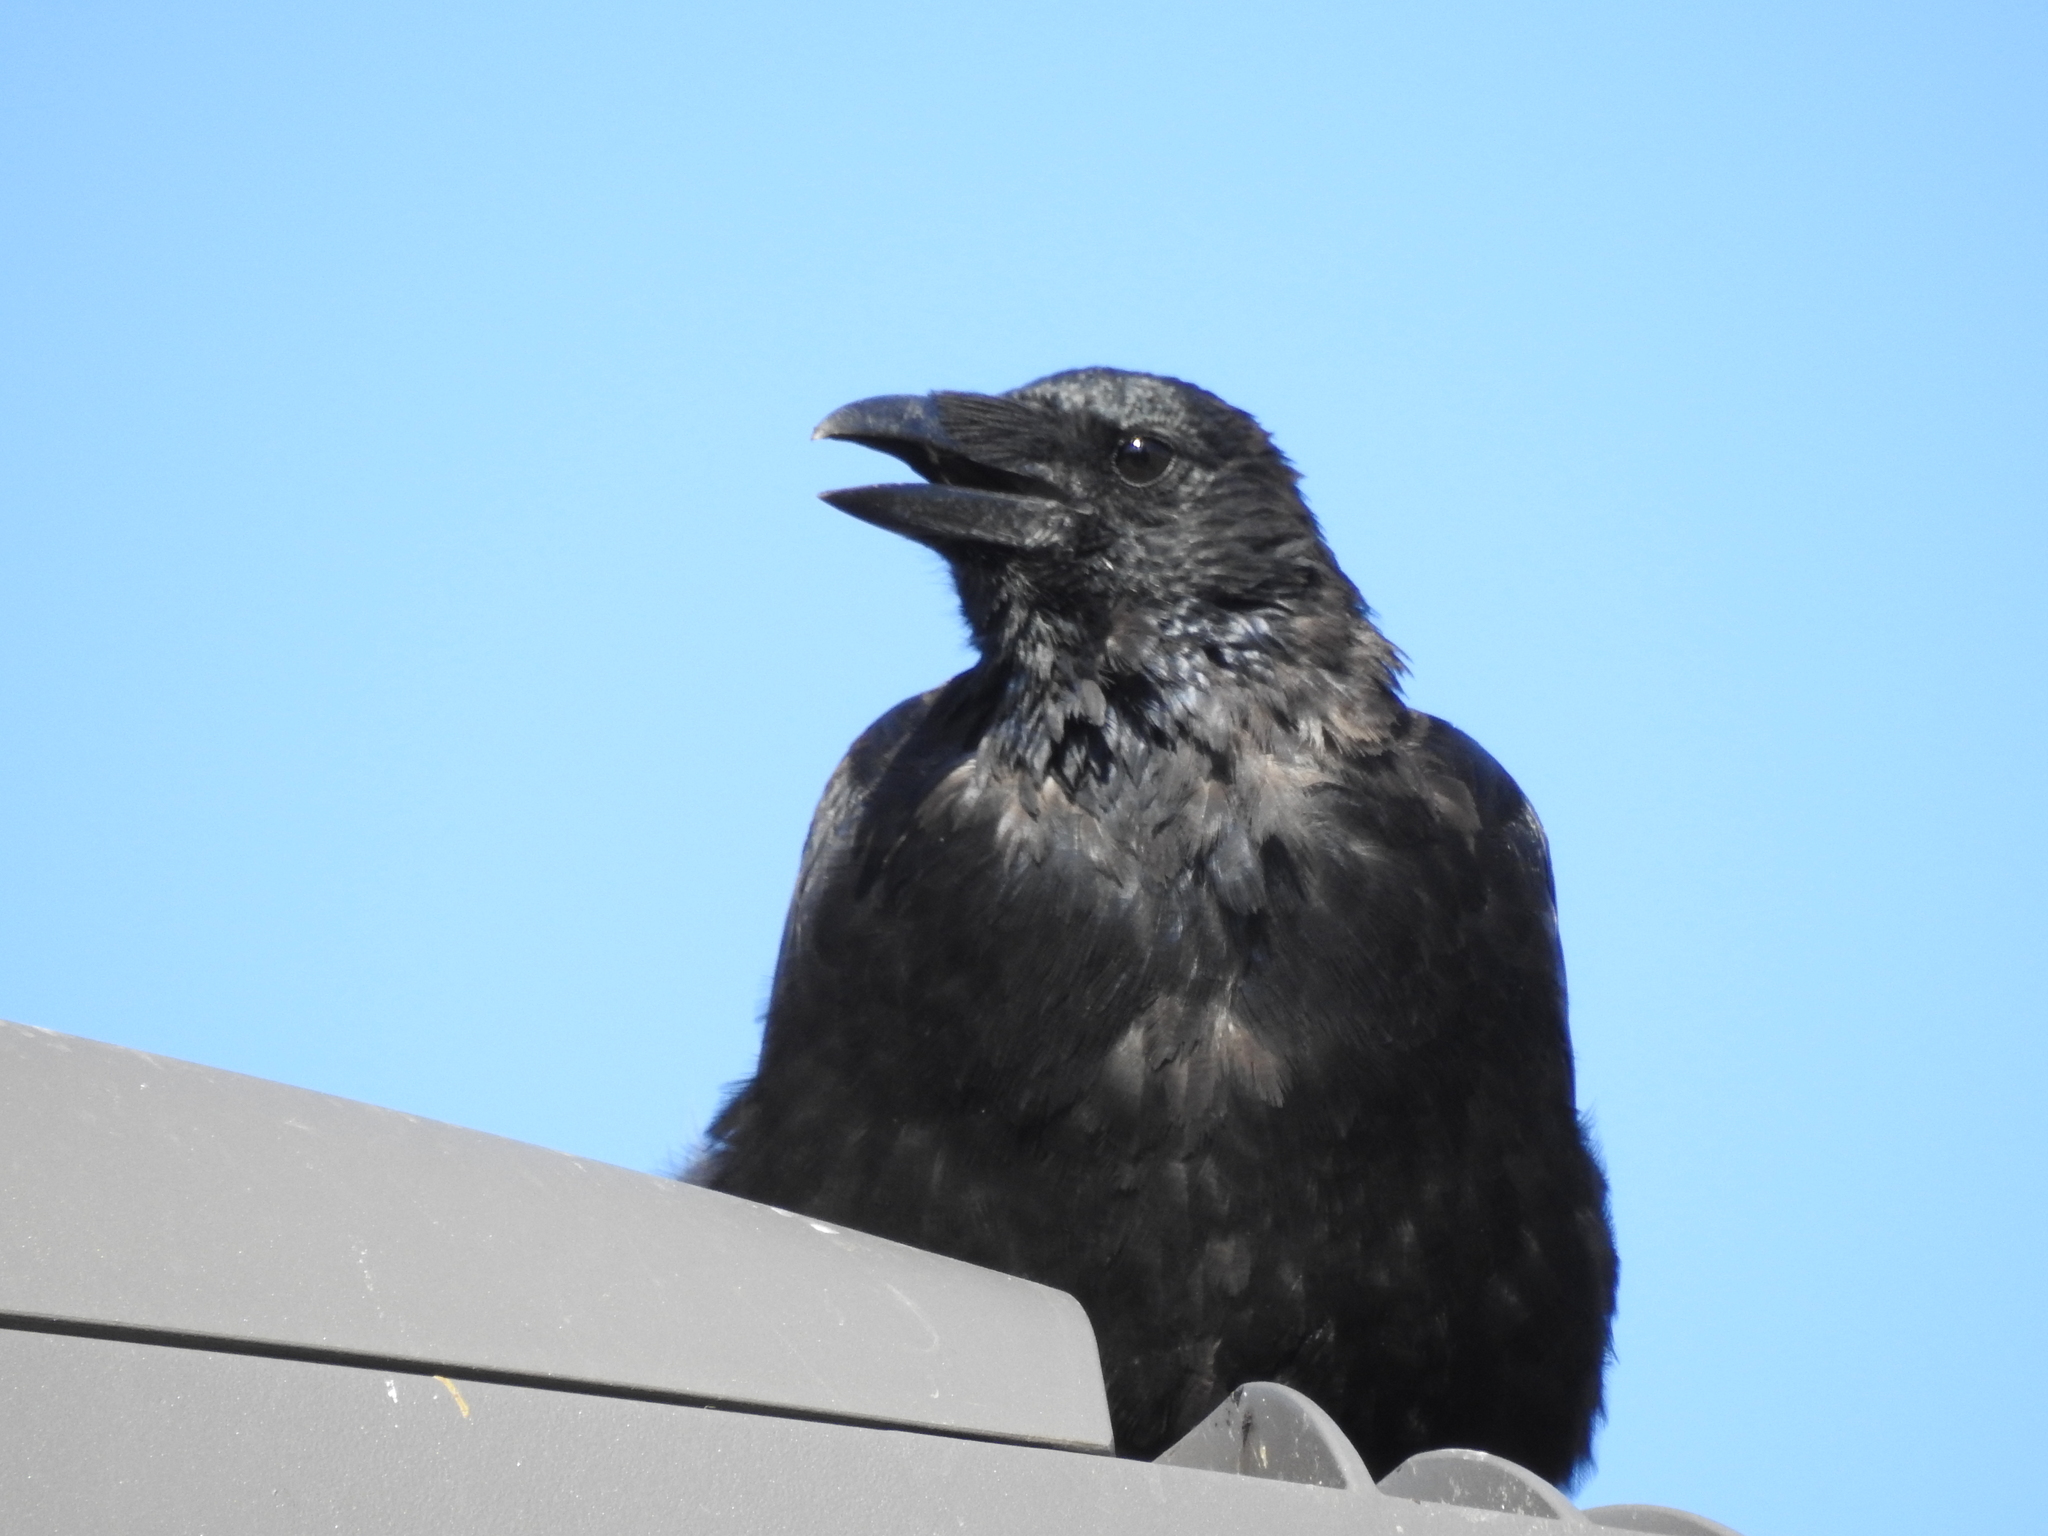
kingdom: Animalia
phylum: Chordata
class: Aves
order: Passeriformes
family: Corvidae
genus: Corvus
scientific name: Corvus corone
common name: Carrion crow
